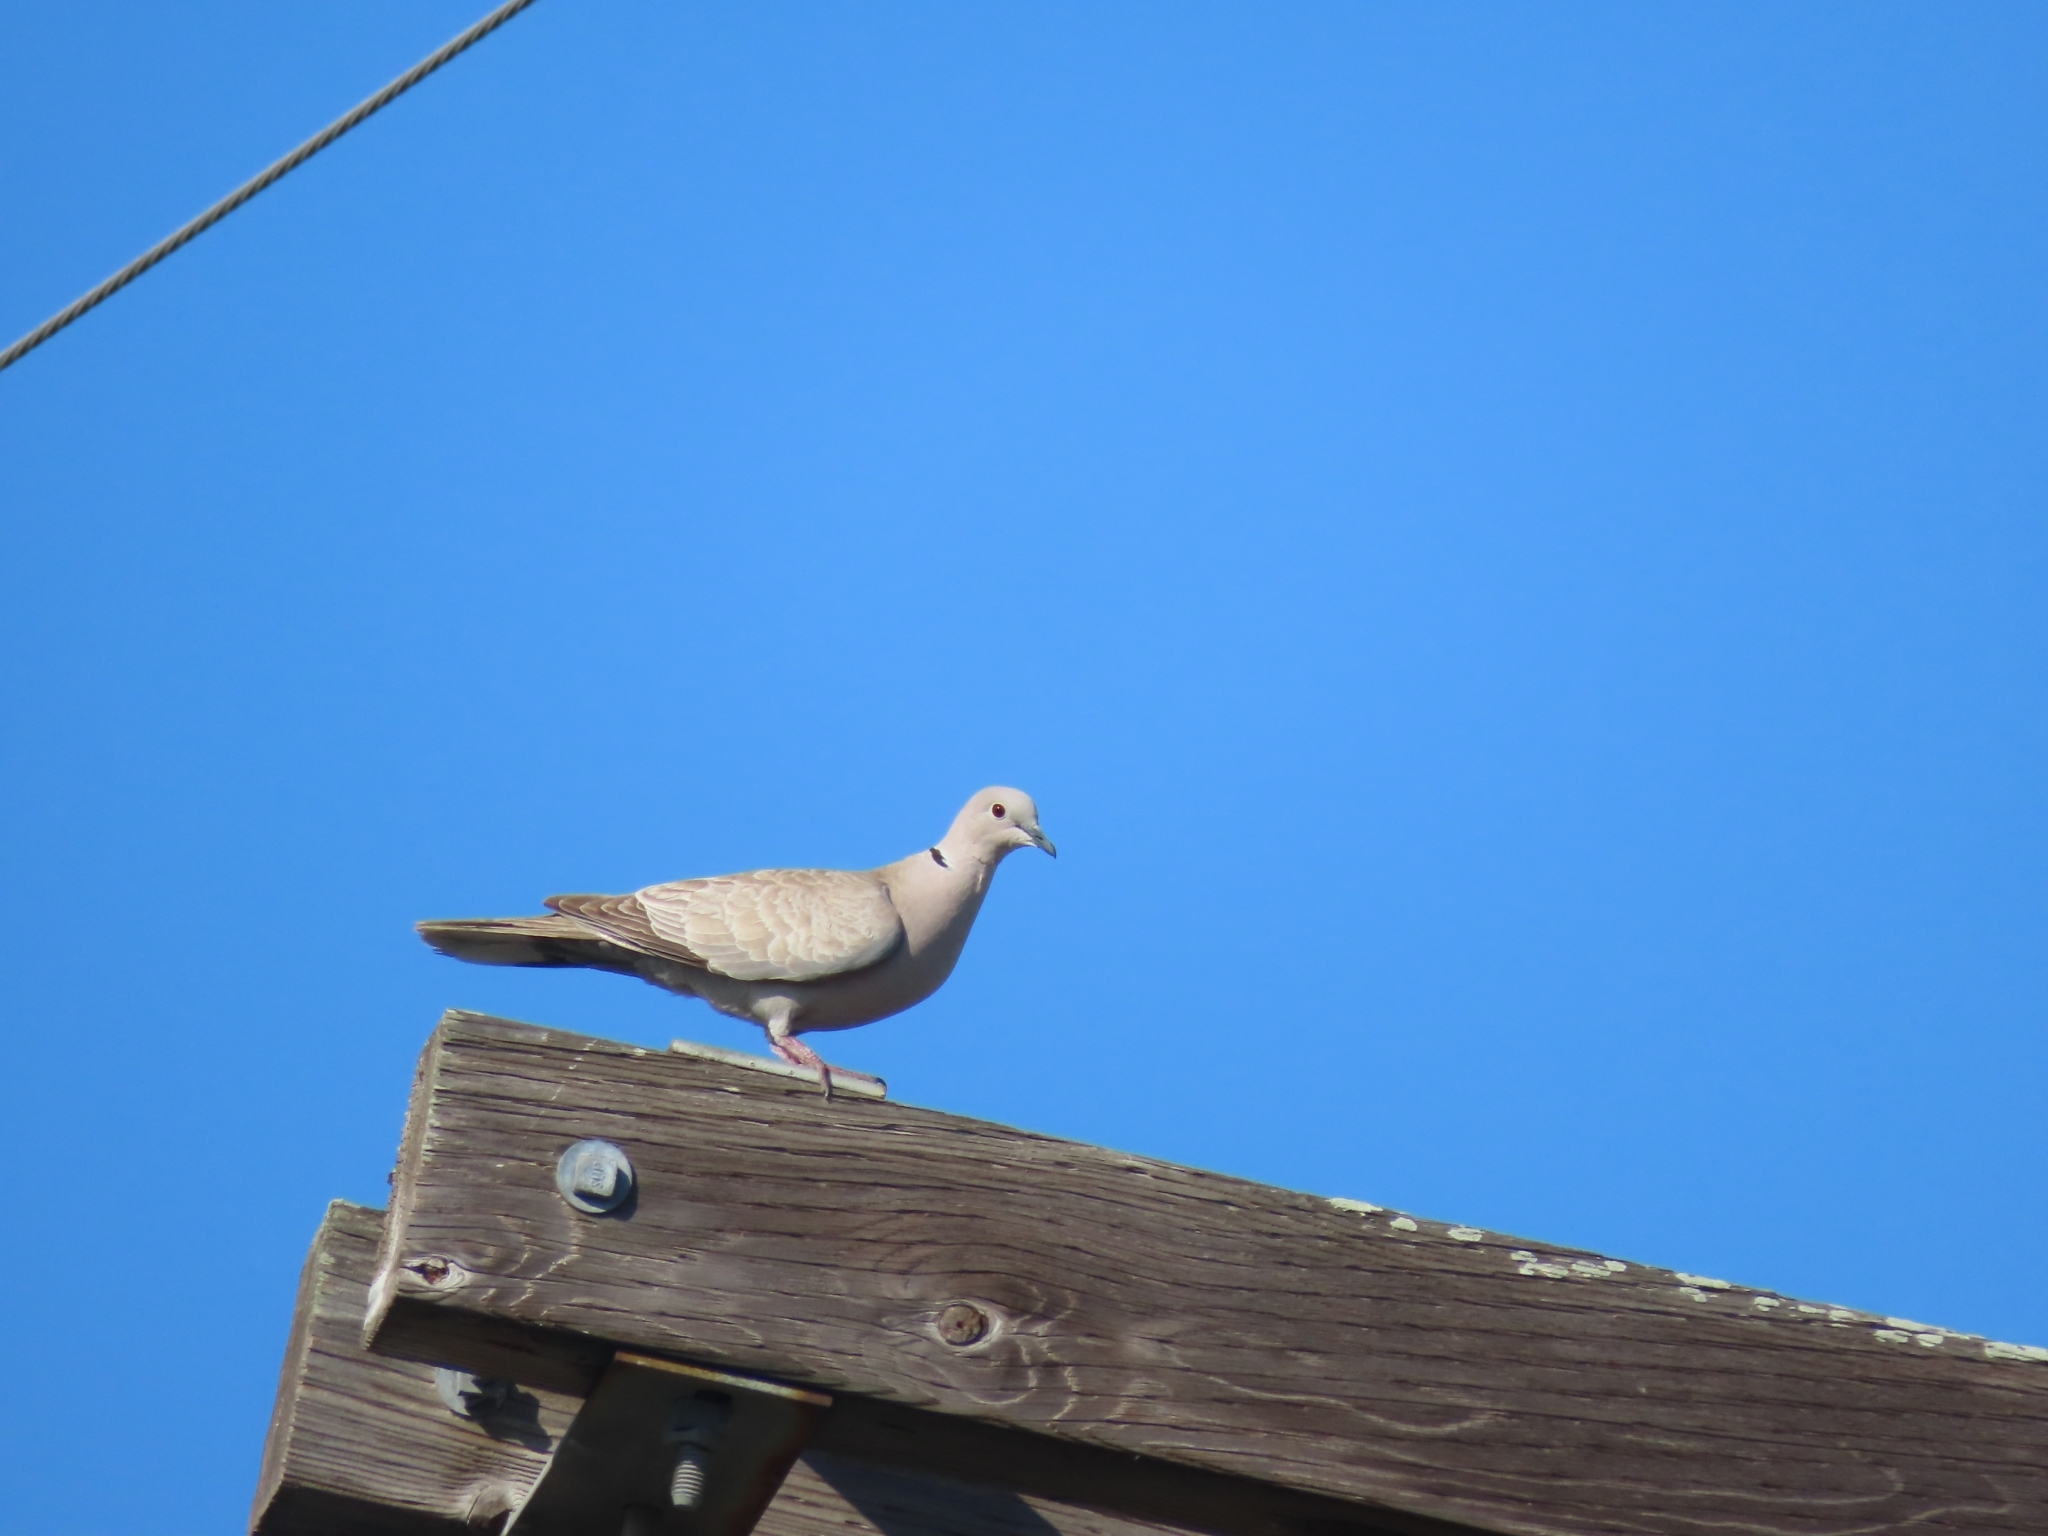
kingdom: Animalia
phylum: Chordata
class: Aves
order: Columbiformes
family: Columbidae
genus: Streptopelia
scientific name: Streptopelia decaocto
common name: Eurasian collared dove
